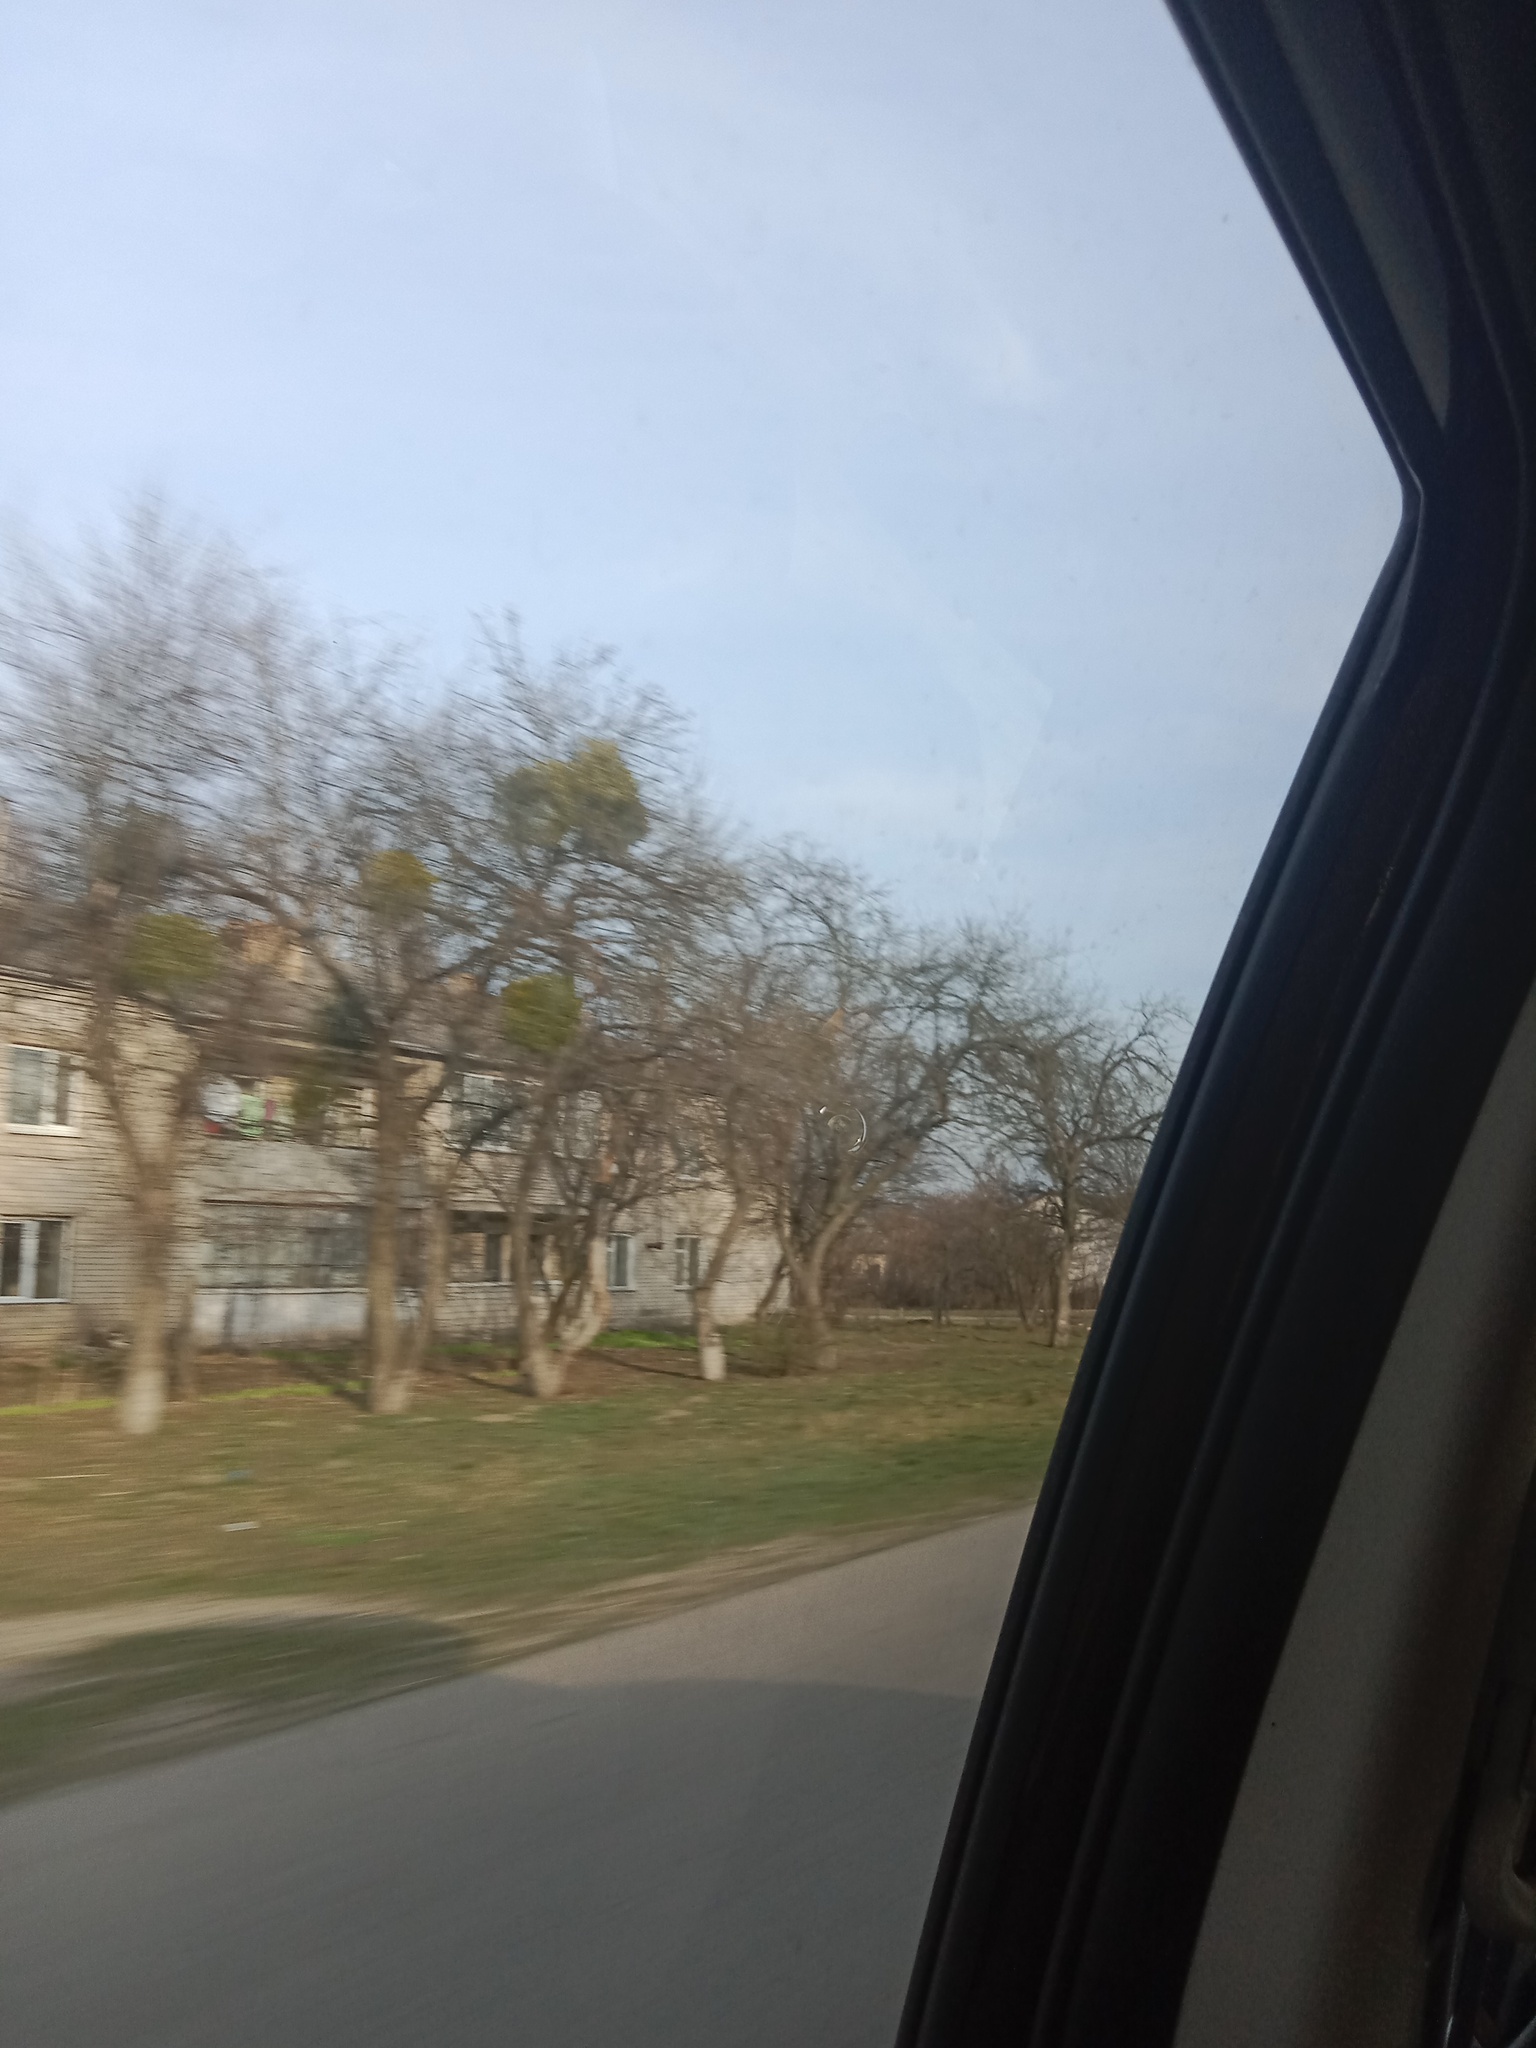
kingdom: Plantae
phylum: Tracheophyta
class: Magnoliopsida
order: Santalales
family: Viscaceae
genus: Viscum
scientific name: Viscum album
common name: Mistletoe
